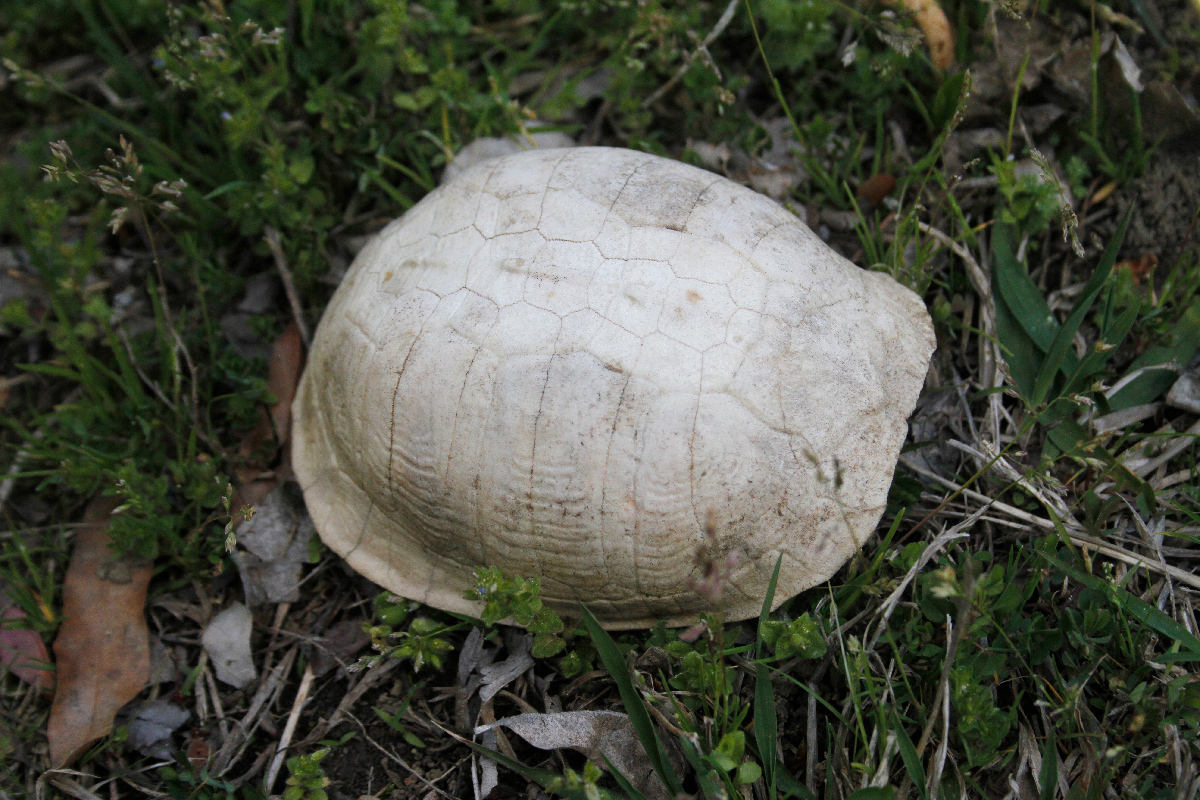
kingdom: Animalia
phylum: Chordata
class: Testudines
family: Emydidae
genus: Terrapene
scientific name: Terrapene carolina
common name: Common box turtle
